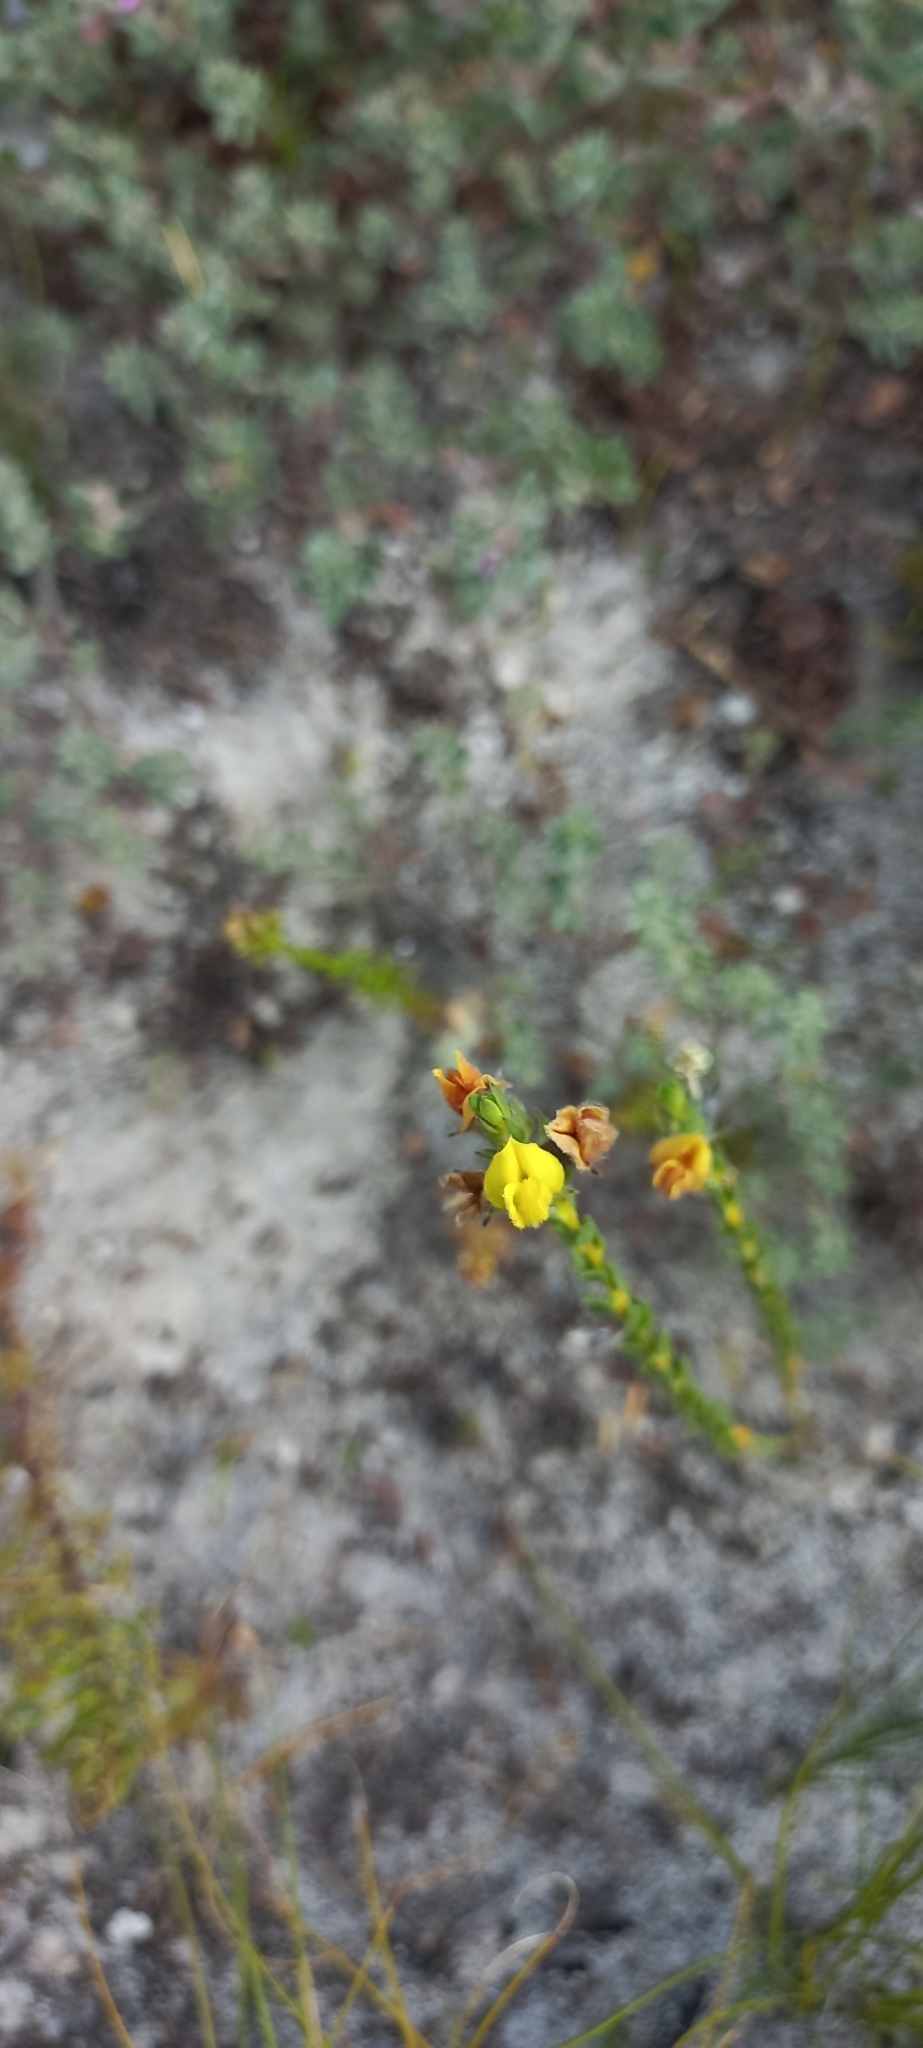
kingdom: Plantae
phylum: Tracheophyta
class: Magnoliopsida
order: Fabales
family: Fabaceae
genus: Aspalathus
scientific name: Aspalathus sericea
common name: Silky pea
